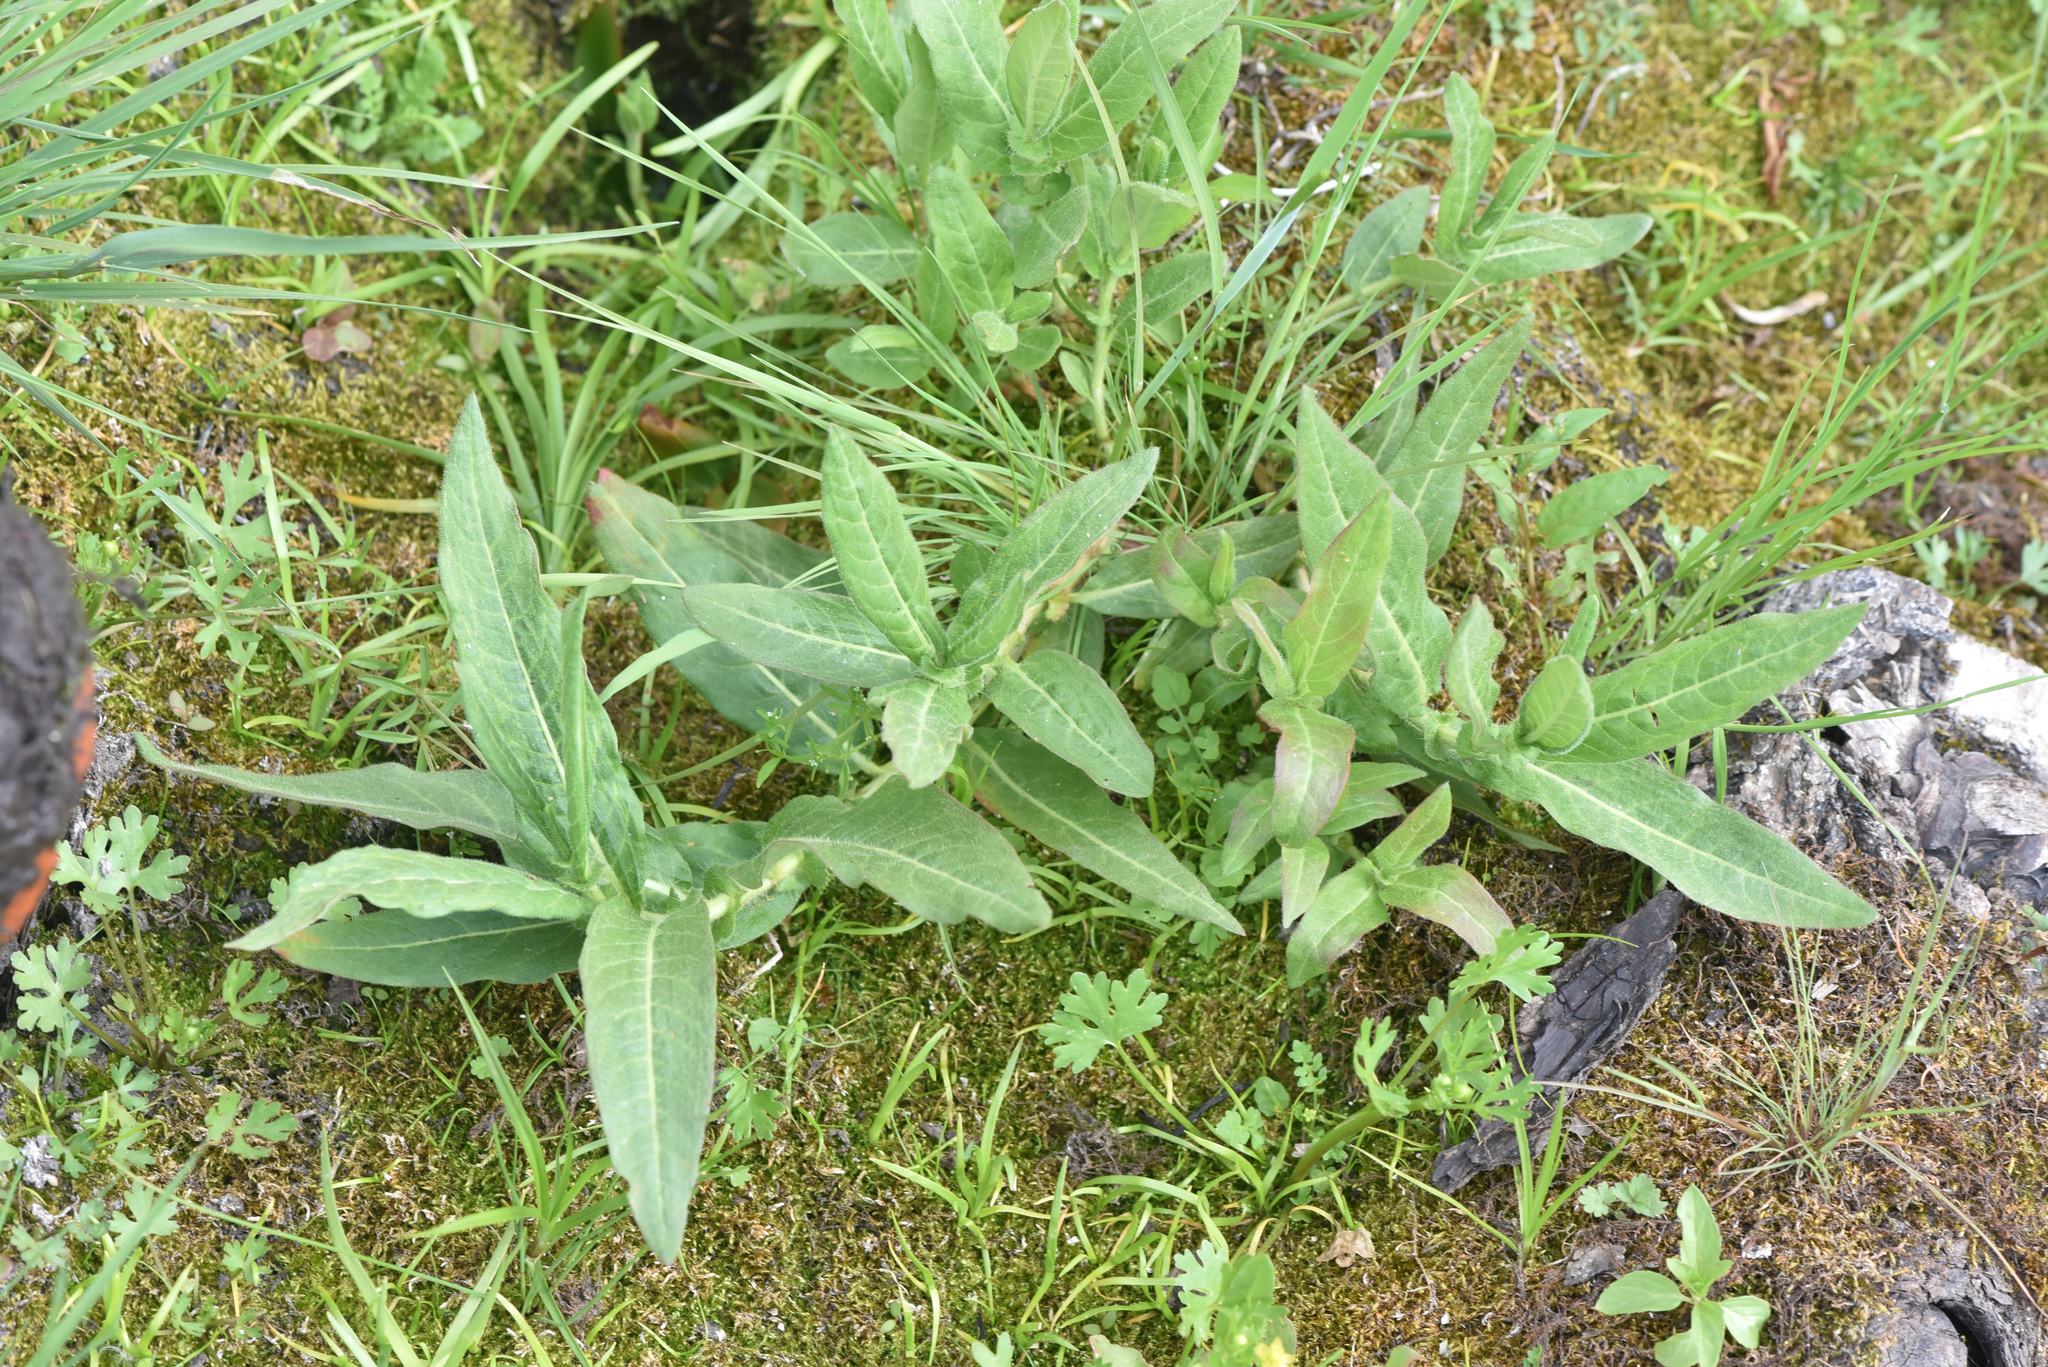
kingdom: Plantae
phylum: Tracheophyta
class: Magnoliopsida
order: Caryophyllales
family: Polygonaceae
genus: Persicaria
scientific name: Persicaria amphibia
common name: Amphibious bistort
